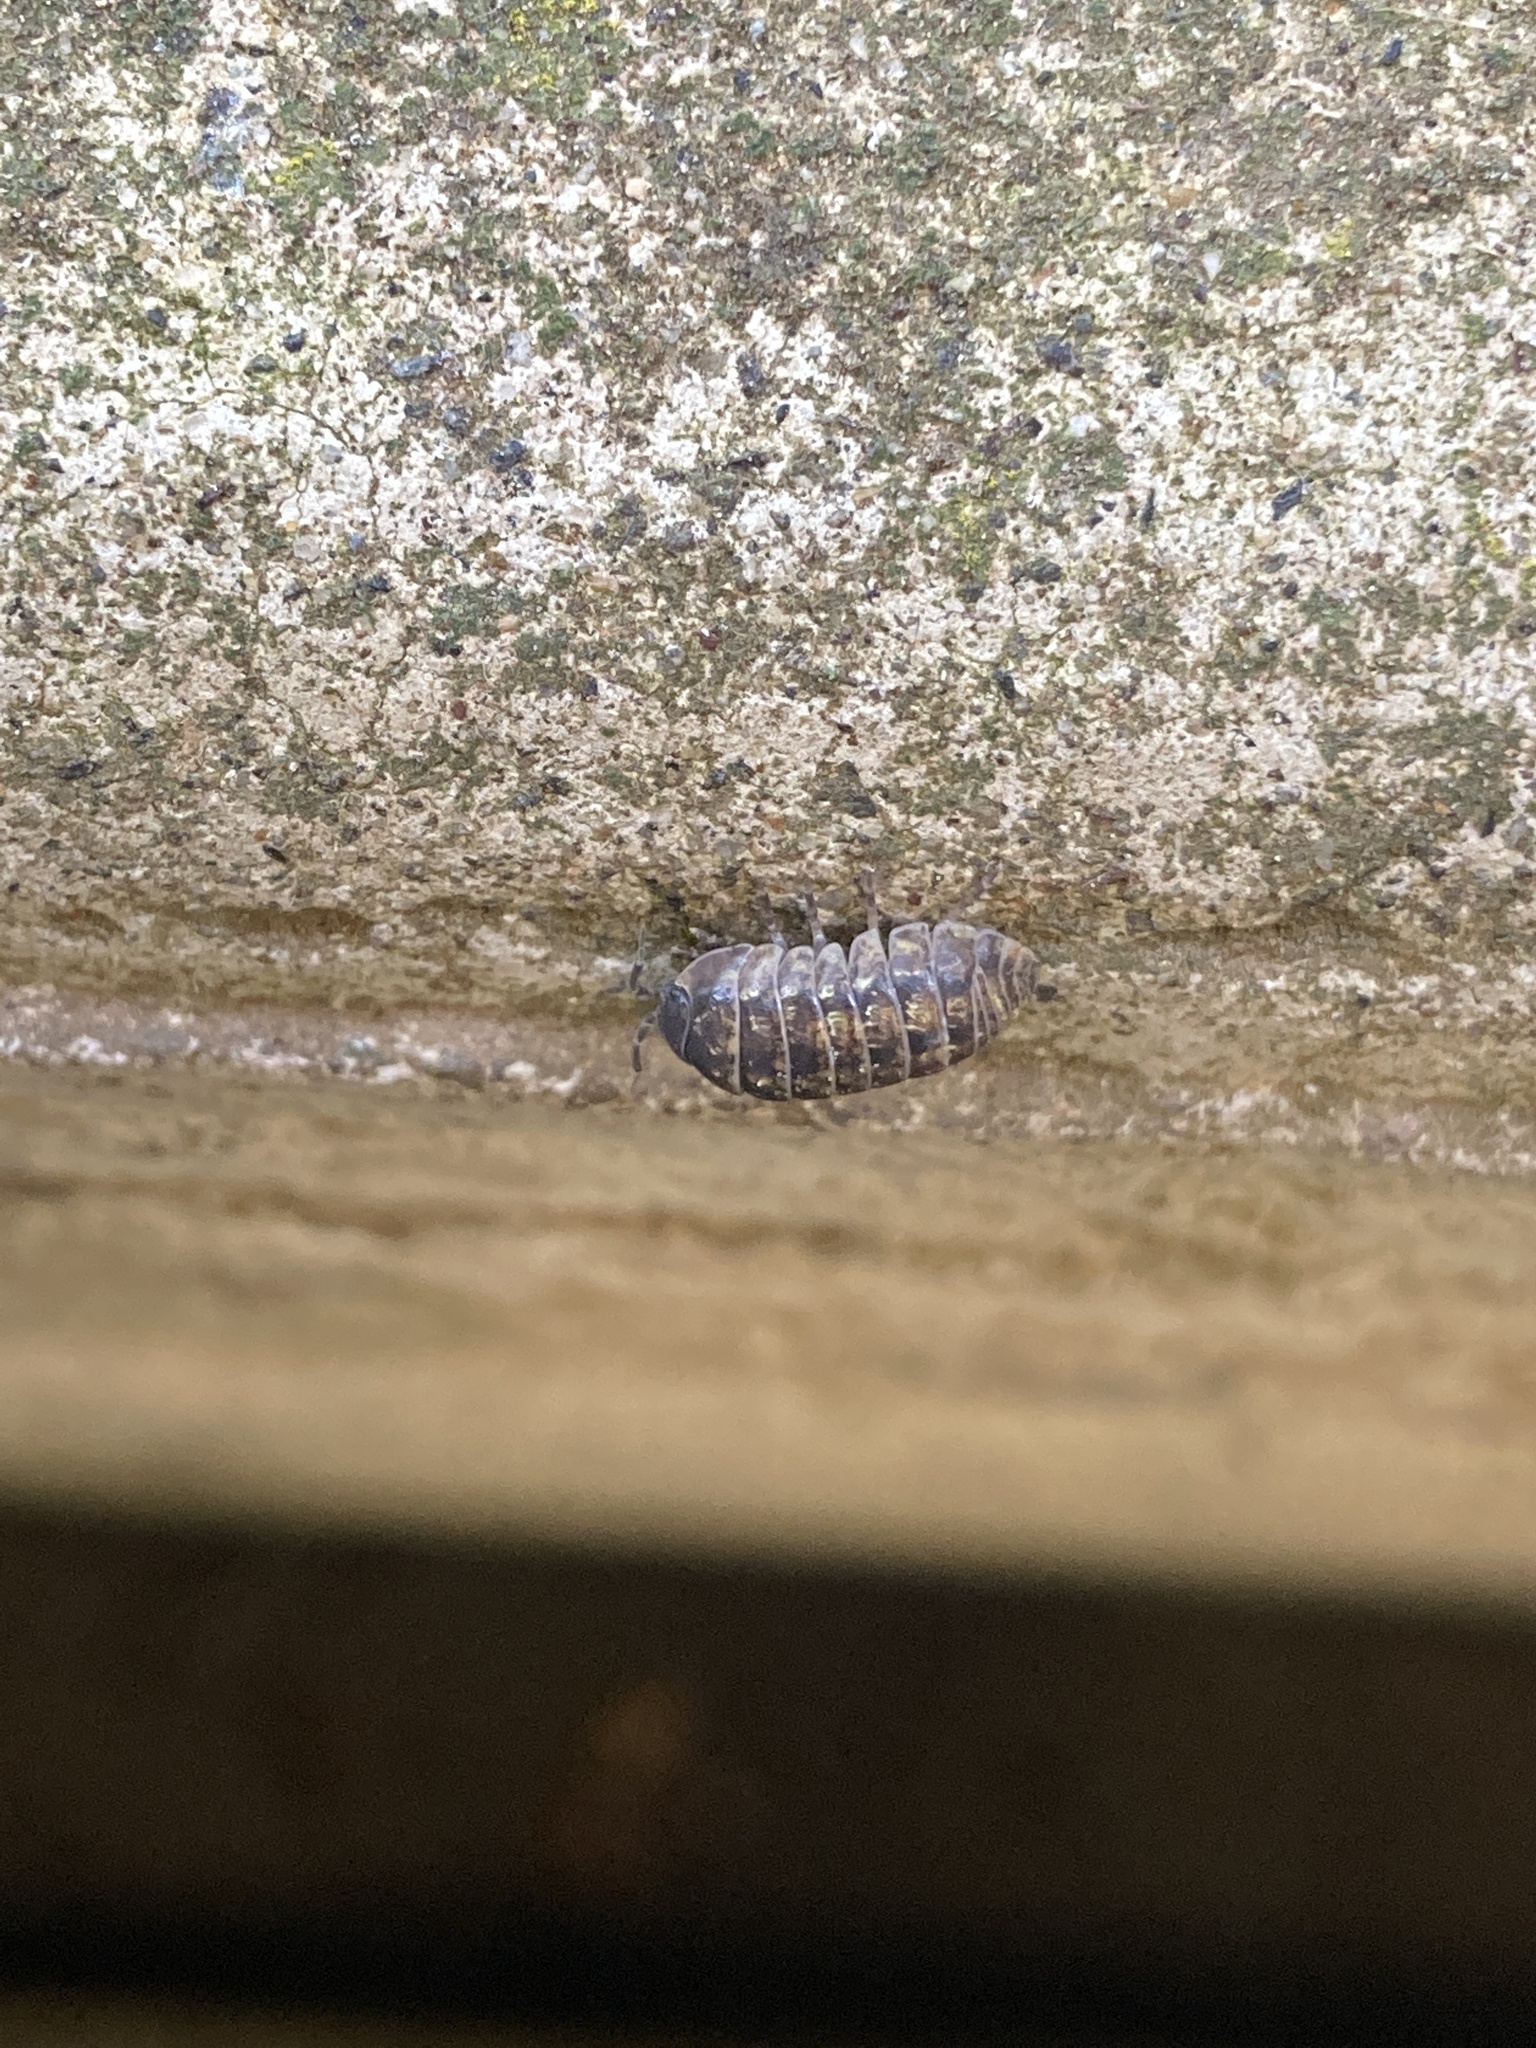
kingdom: Animalia
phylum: Arthropoda
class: Malacostraca
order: Isopoda
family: Armadillidiidae
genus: Armadillidium
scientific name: Armadillidium vulgare
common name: Common pill woodlouse
